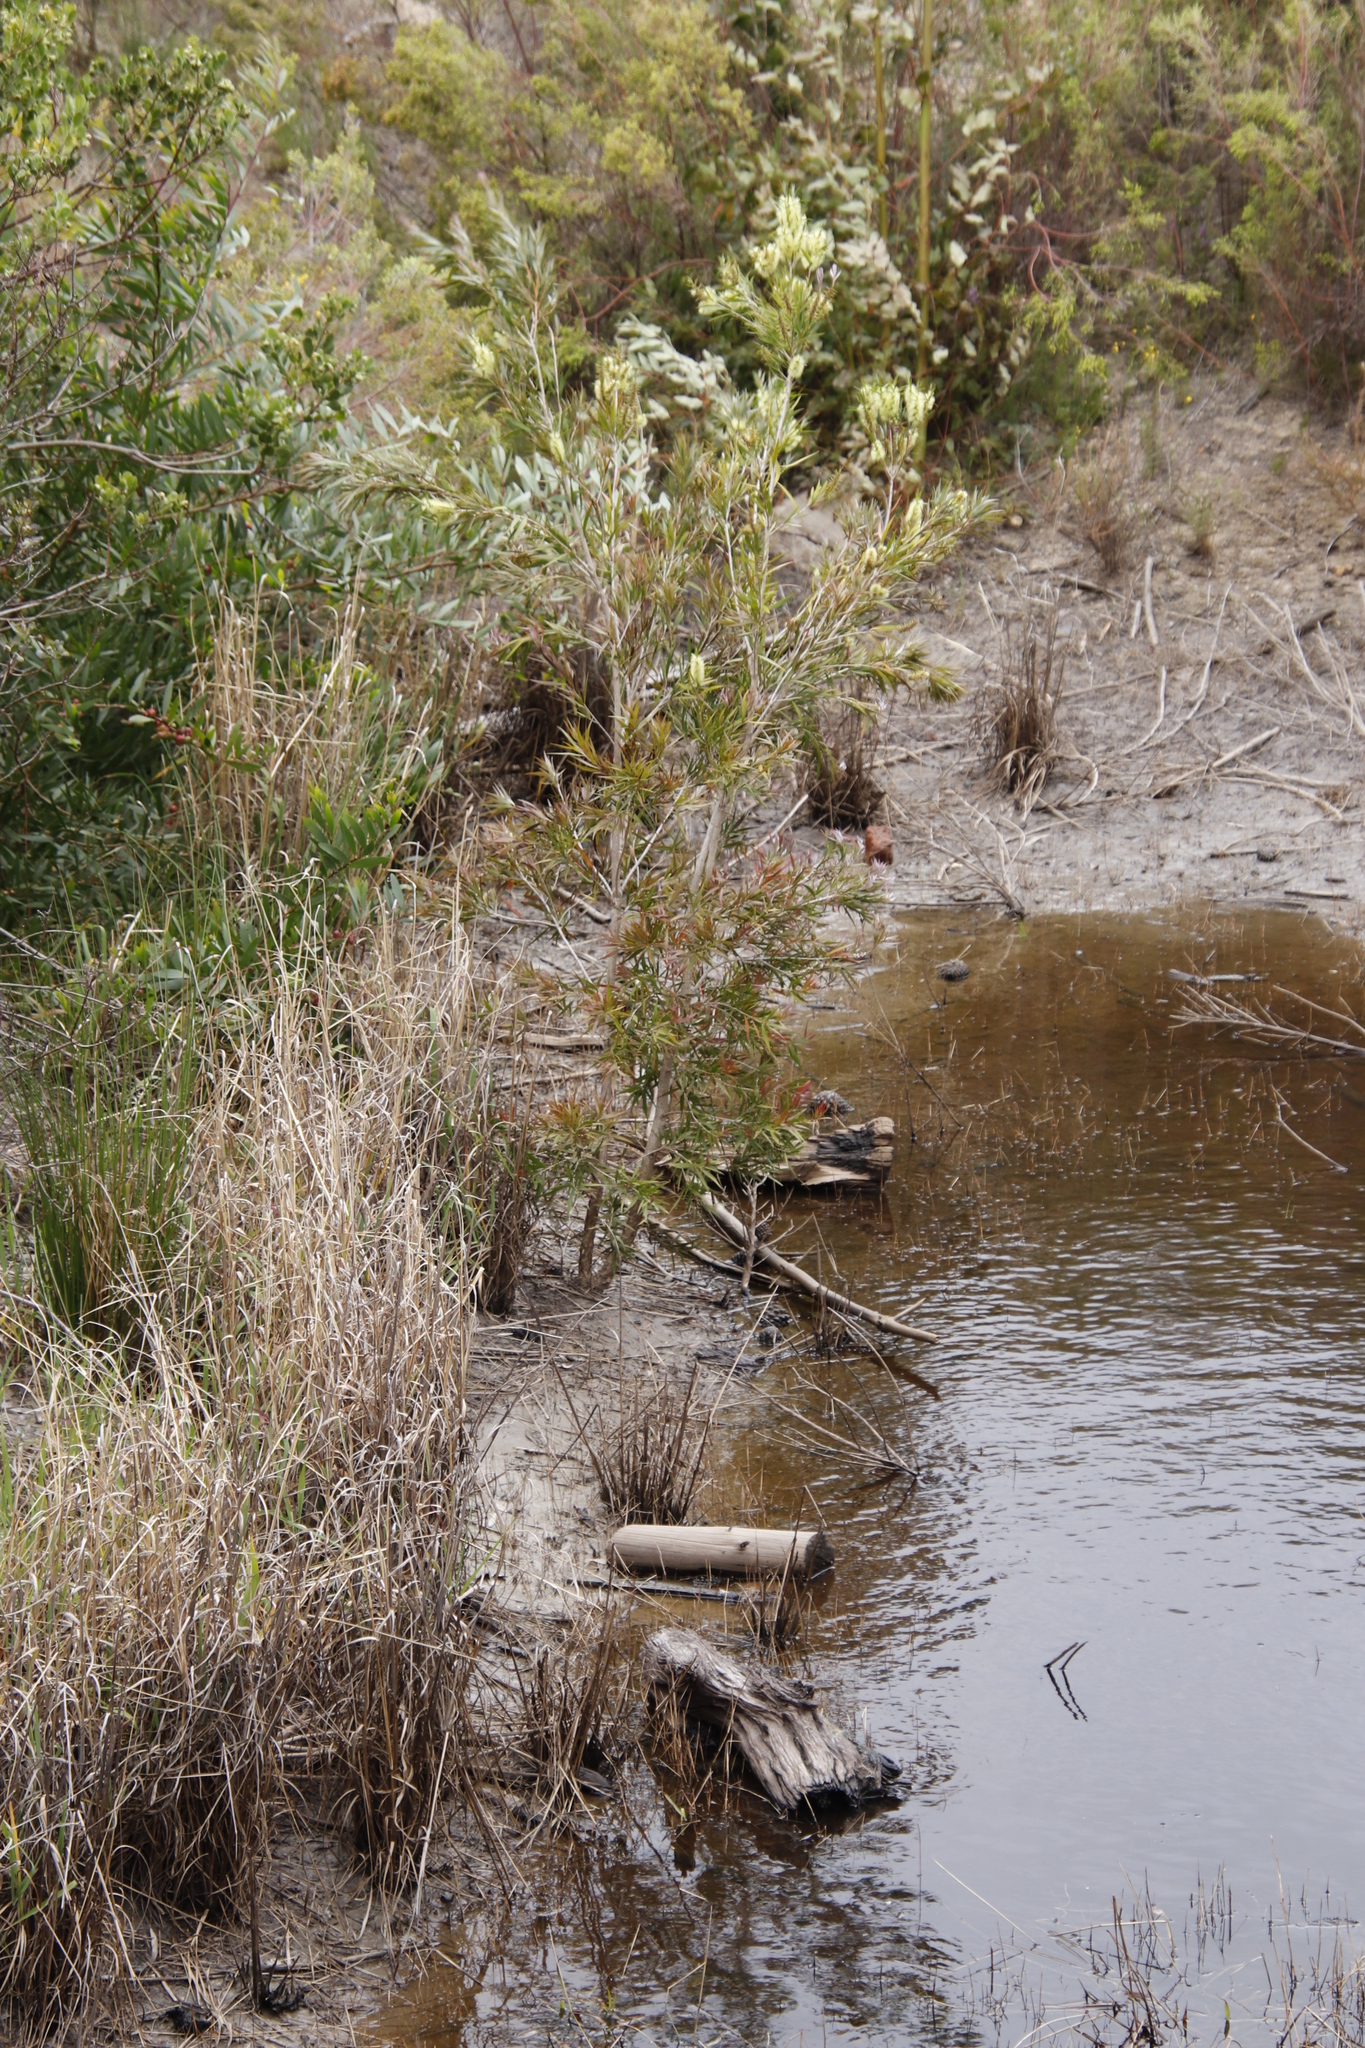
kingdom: Plantae
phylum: Tracheophyta
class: Magnoliopsida
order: Myrtales
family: Myrtaceae
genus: Callistemon
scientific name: Callistemon salignus
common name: White bottlebrush
